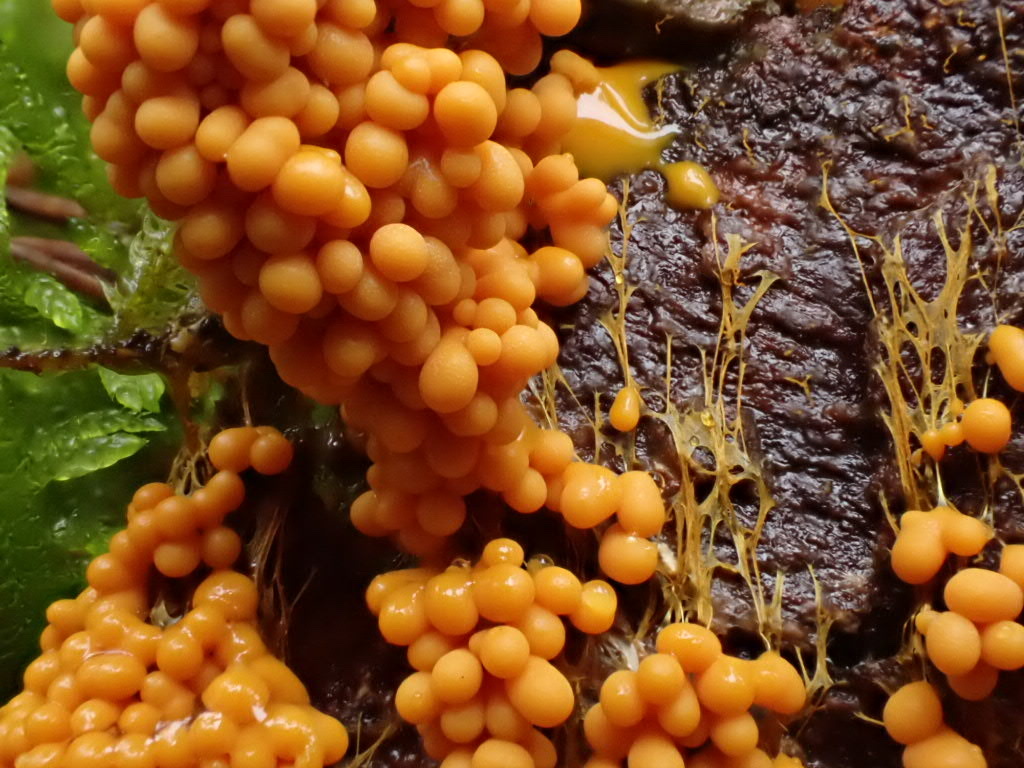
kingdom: Protozoa
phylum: Mycetozoa
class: Myxomycetes
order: Physarales
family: Physaraceae
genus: Badhamia
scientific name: Badhamia utricularis
